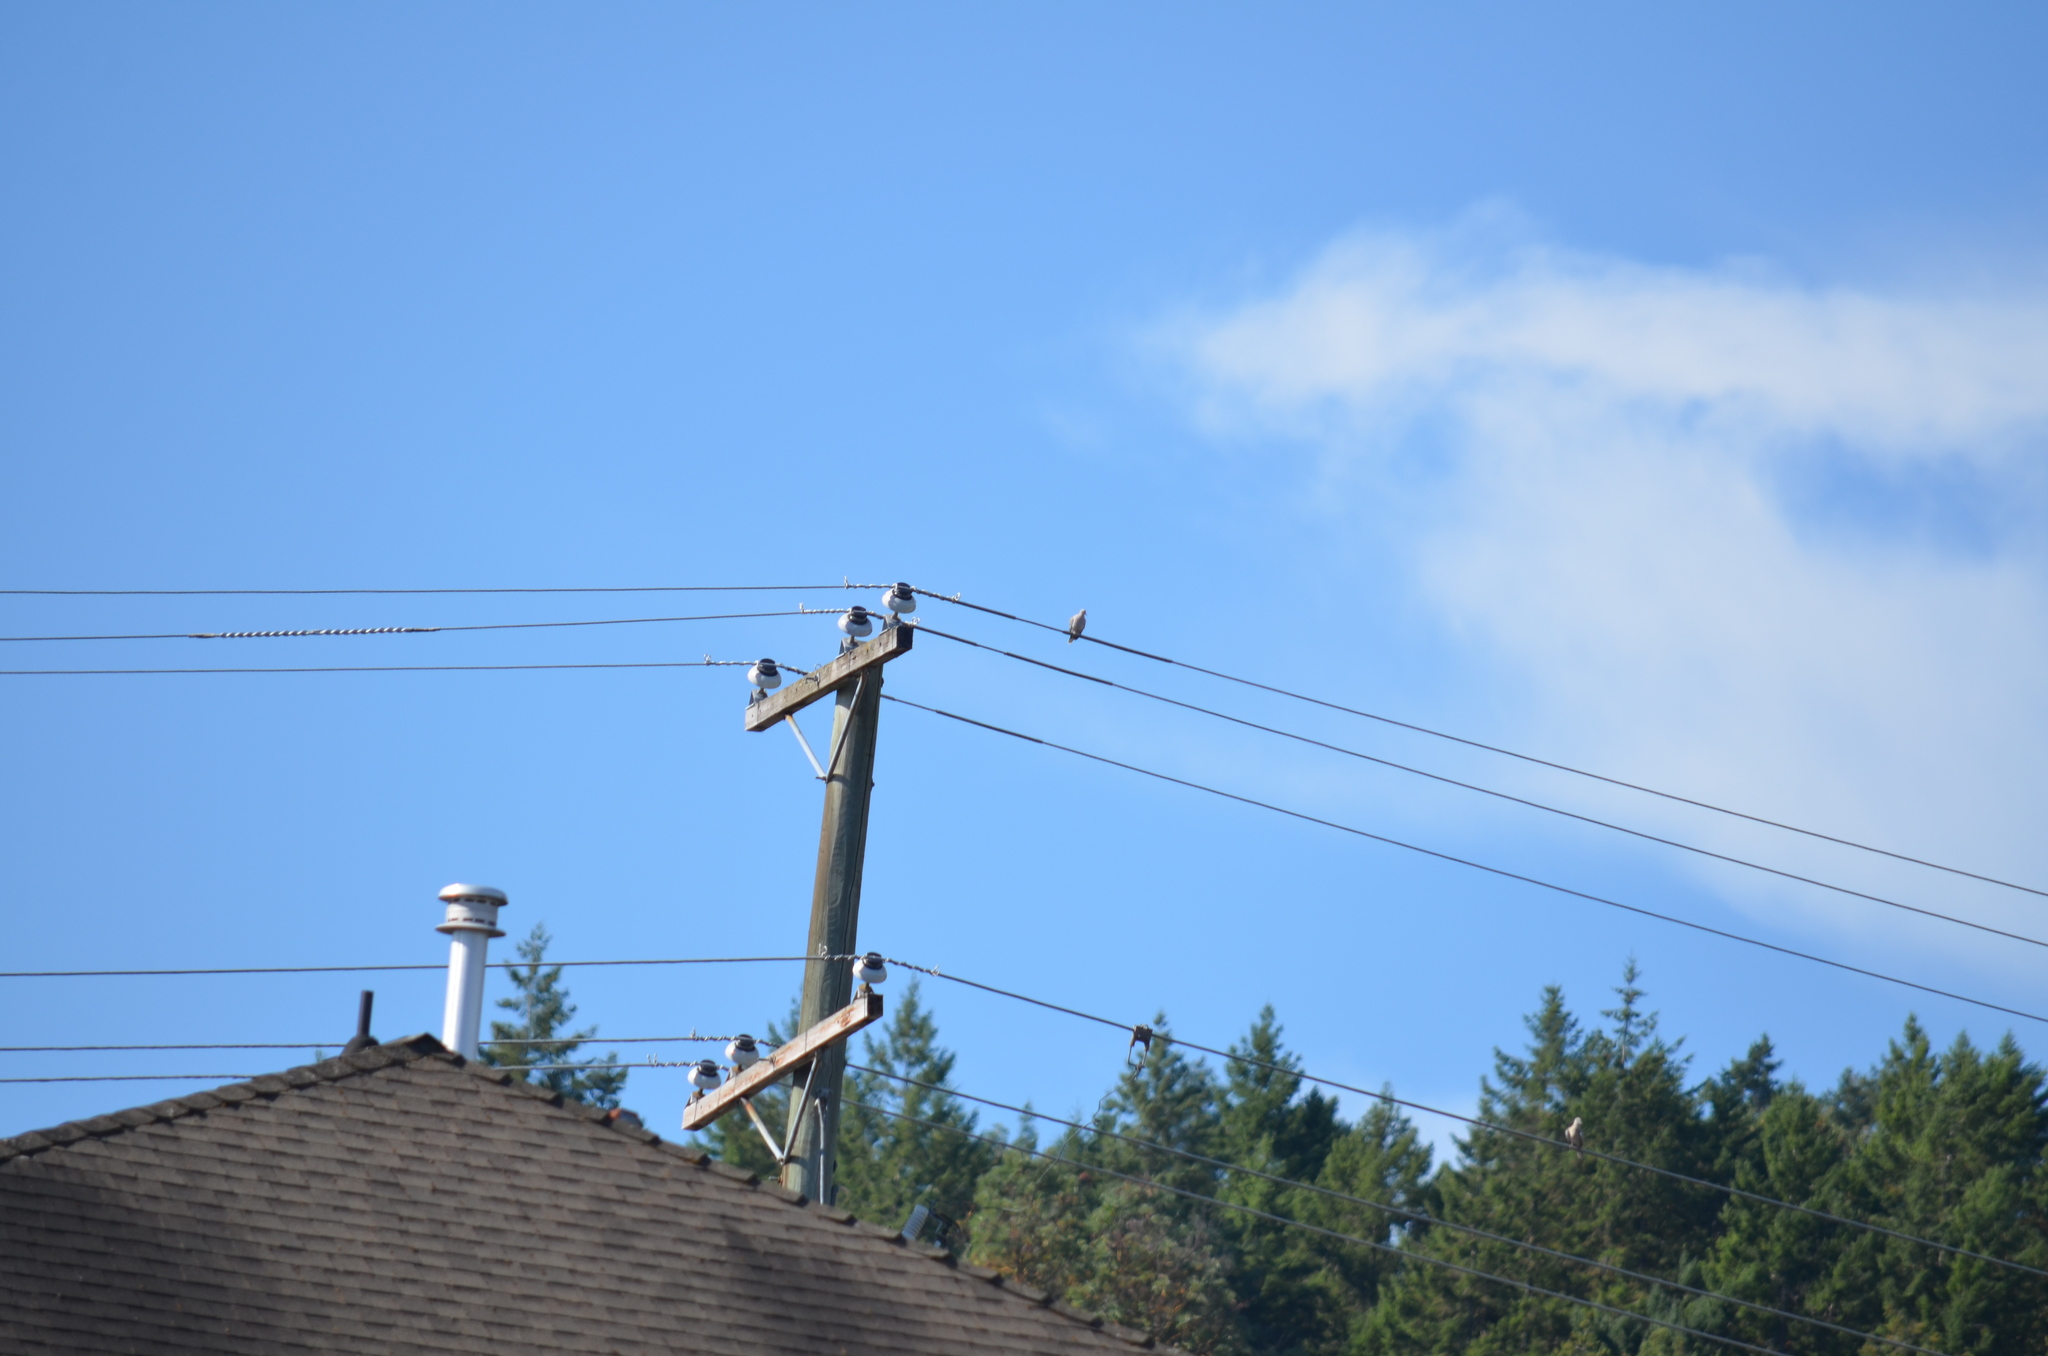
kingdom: Animalia
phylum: Chordata
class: Aves
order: Columbiformes
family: Columbidae
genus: Streptopelia
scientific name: Streptopelia decaocto
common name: Eurasian collared dove
